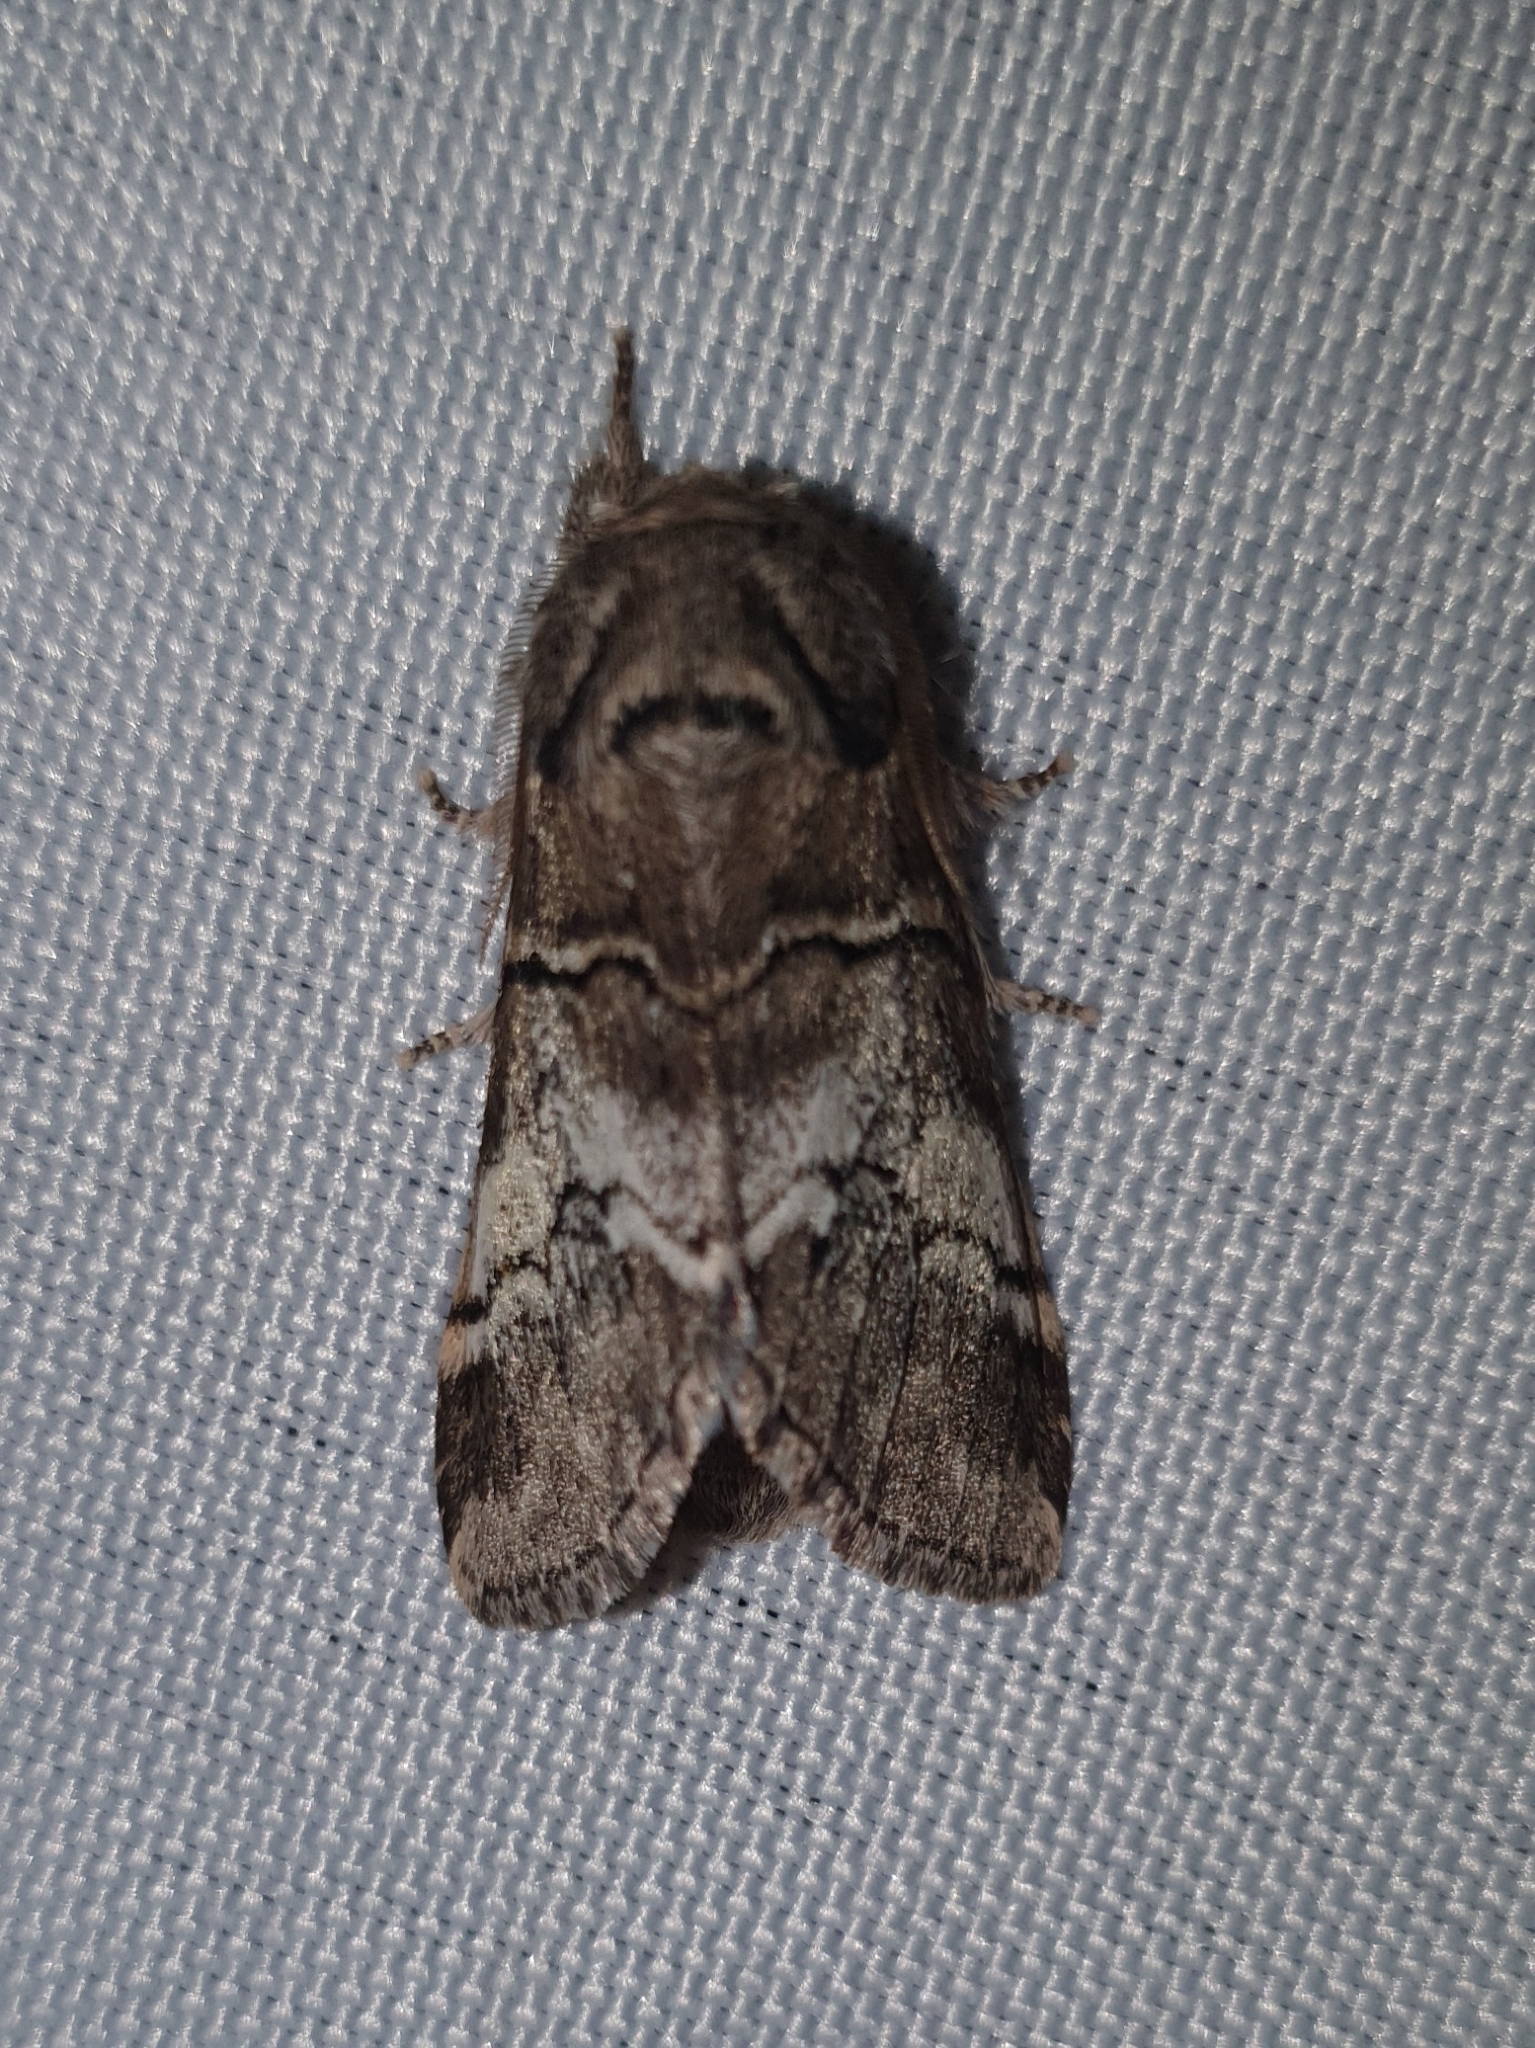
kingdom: Animalia
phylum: Arthropoda
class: Insecta
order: Lepidoptera
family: Notodontidae
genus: Drymonia
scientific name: Drymonia querna
